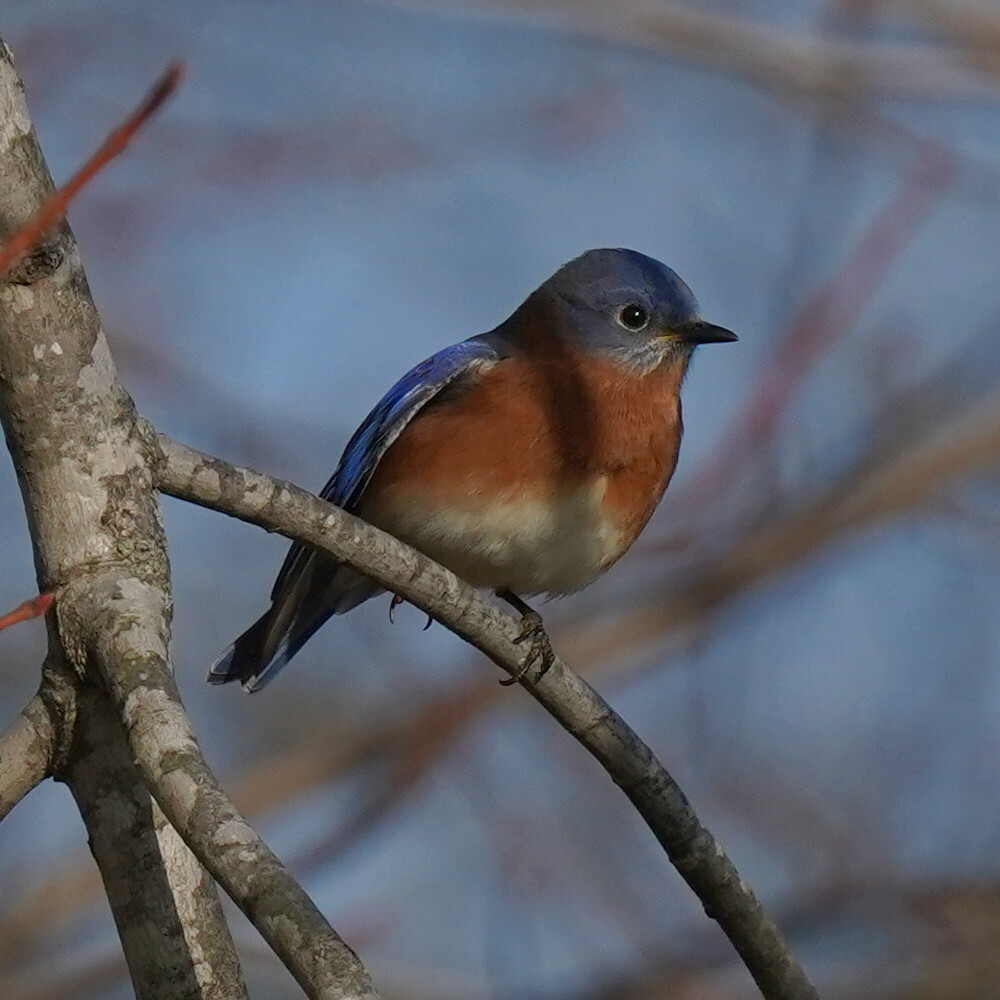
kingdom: Animalia
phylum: Chordata
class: Aves
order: Passeriformes
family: Turdidae
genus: Sialia
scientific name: Sialia sialis
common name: Eastern bluebird
